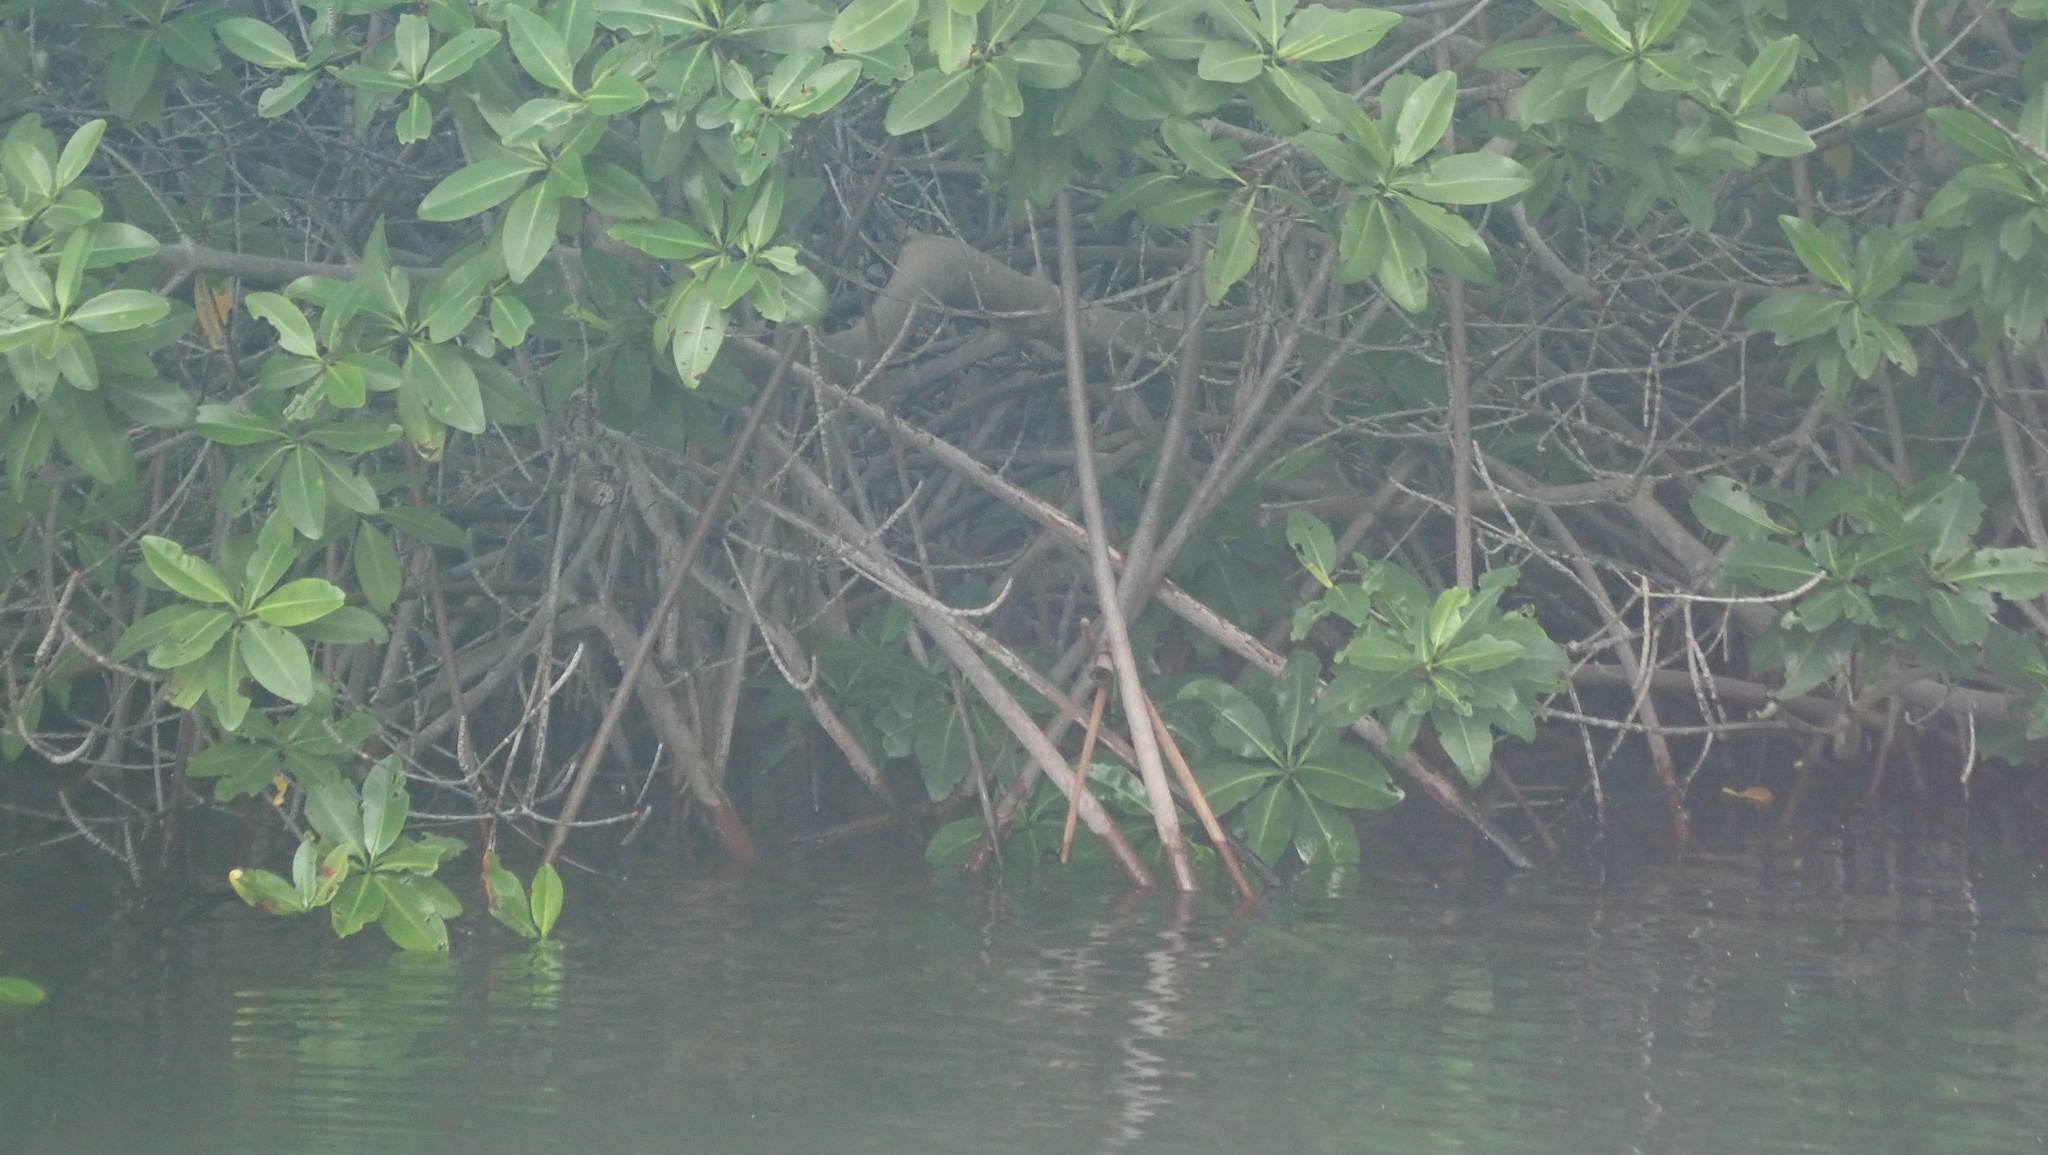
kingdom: Plantae
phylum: Tracheophyta
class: Magnoliopsida
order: Malpighiales
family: Rhizophoraceae
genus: Rhizophora
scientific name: Rhizophora mangle
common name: Red mangrove
